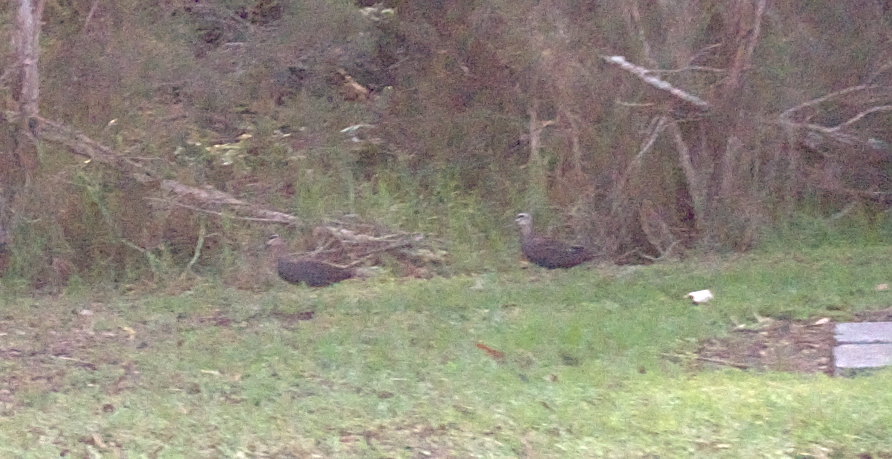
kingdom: Animalia
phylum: Chordata
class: Aves
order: Anseriformes
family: Anatidae
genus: Anas
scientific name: Anas superciliosa
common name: Pacific black duck
